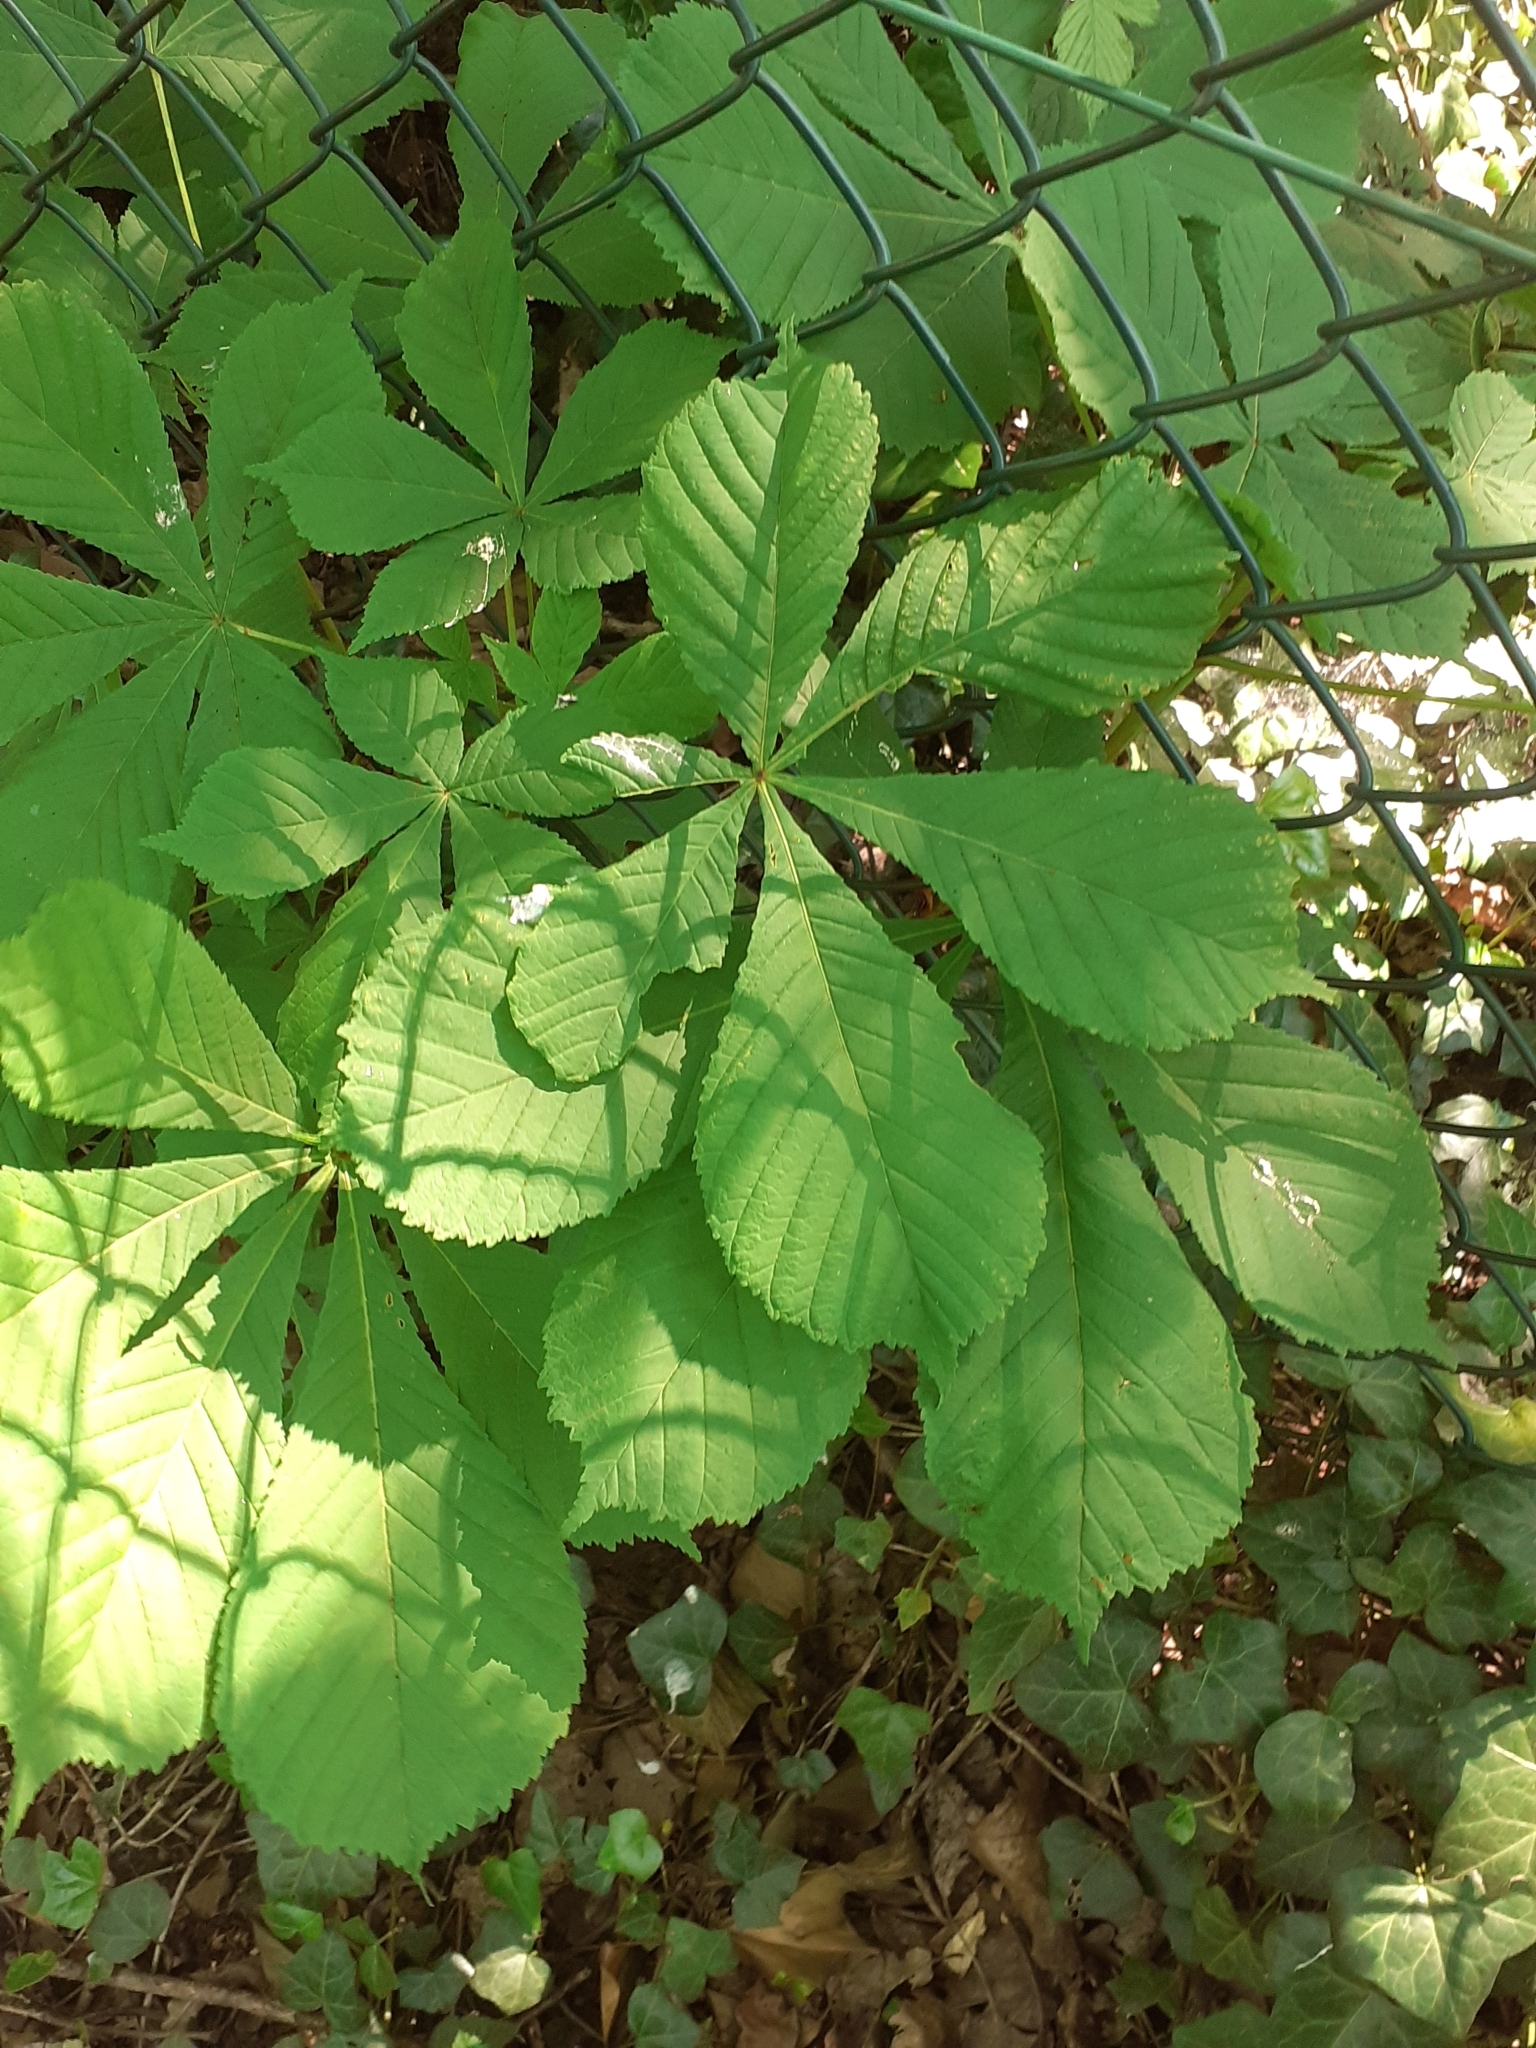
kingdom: Plantae
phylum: Tracheophyta
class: Magnoliopsida
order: Sapindales
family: Sapindaceae
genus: Aesculus
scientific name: Aesculus hippocastanum
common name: Horse-chestnut
